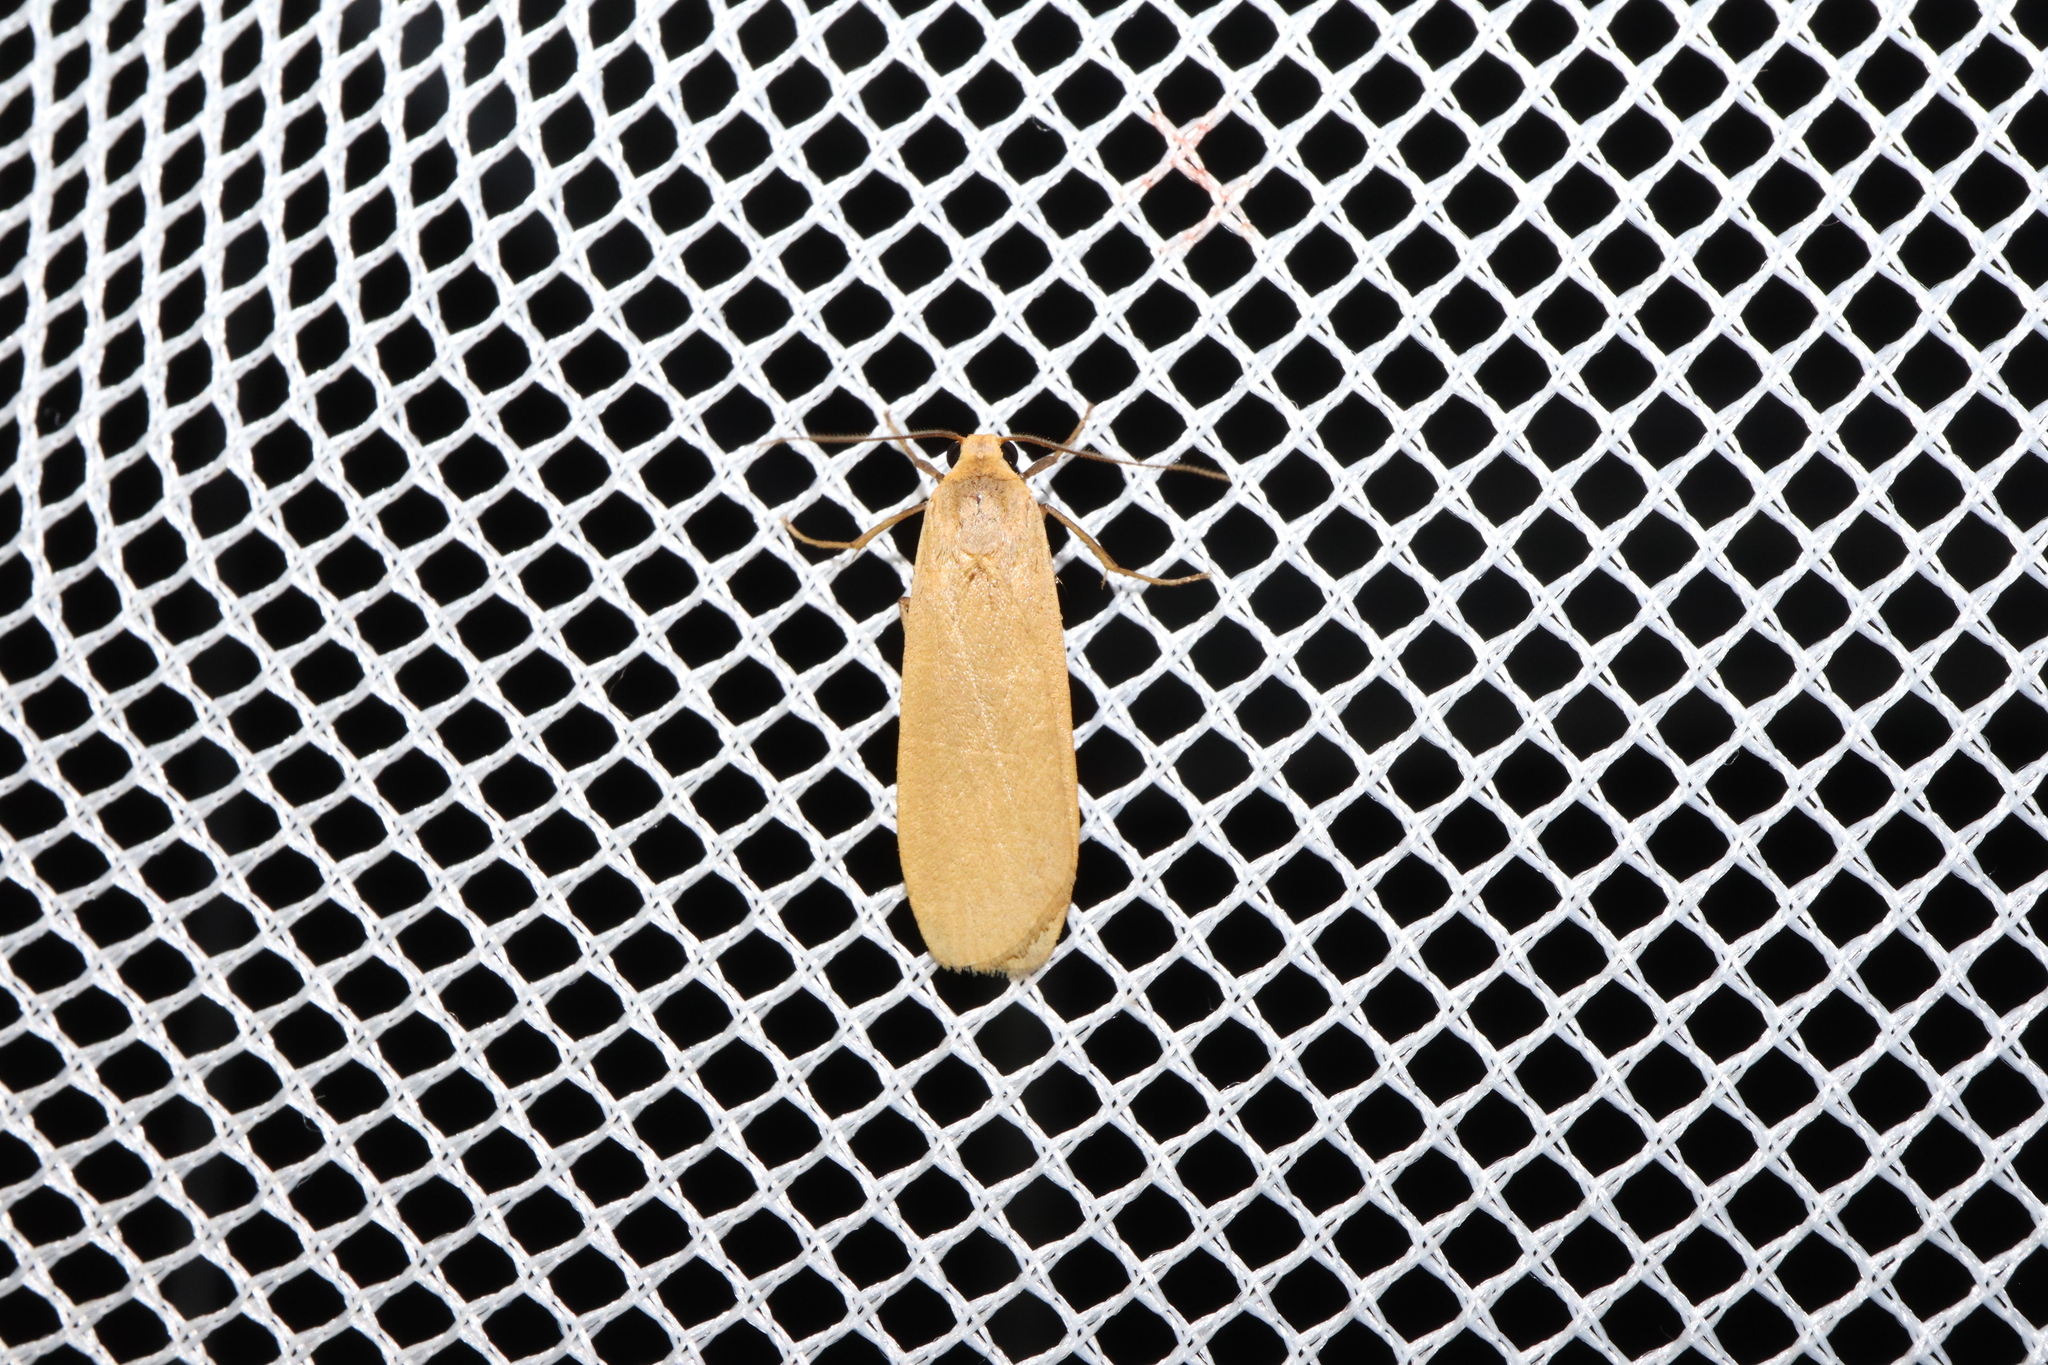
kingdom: Animalia
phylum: Arthropoda
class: Insecta
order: Lepidoptera
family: Erebidae
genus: Eilema
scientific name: Eilema plana
